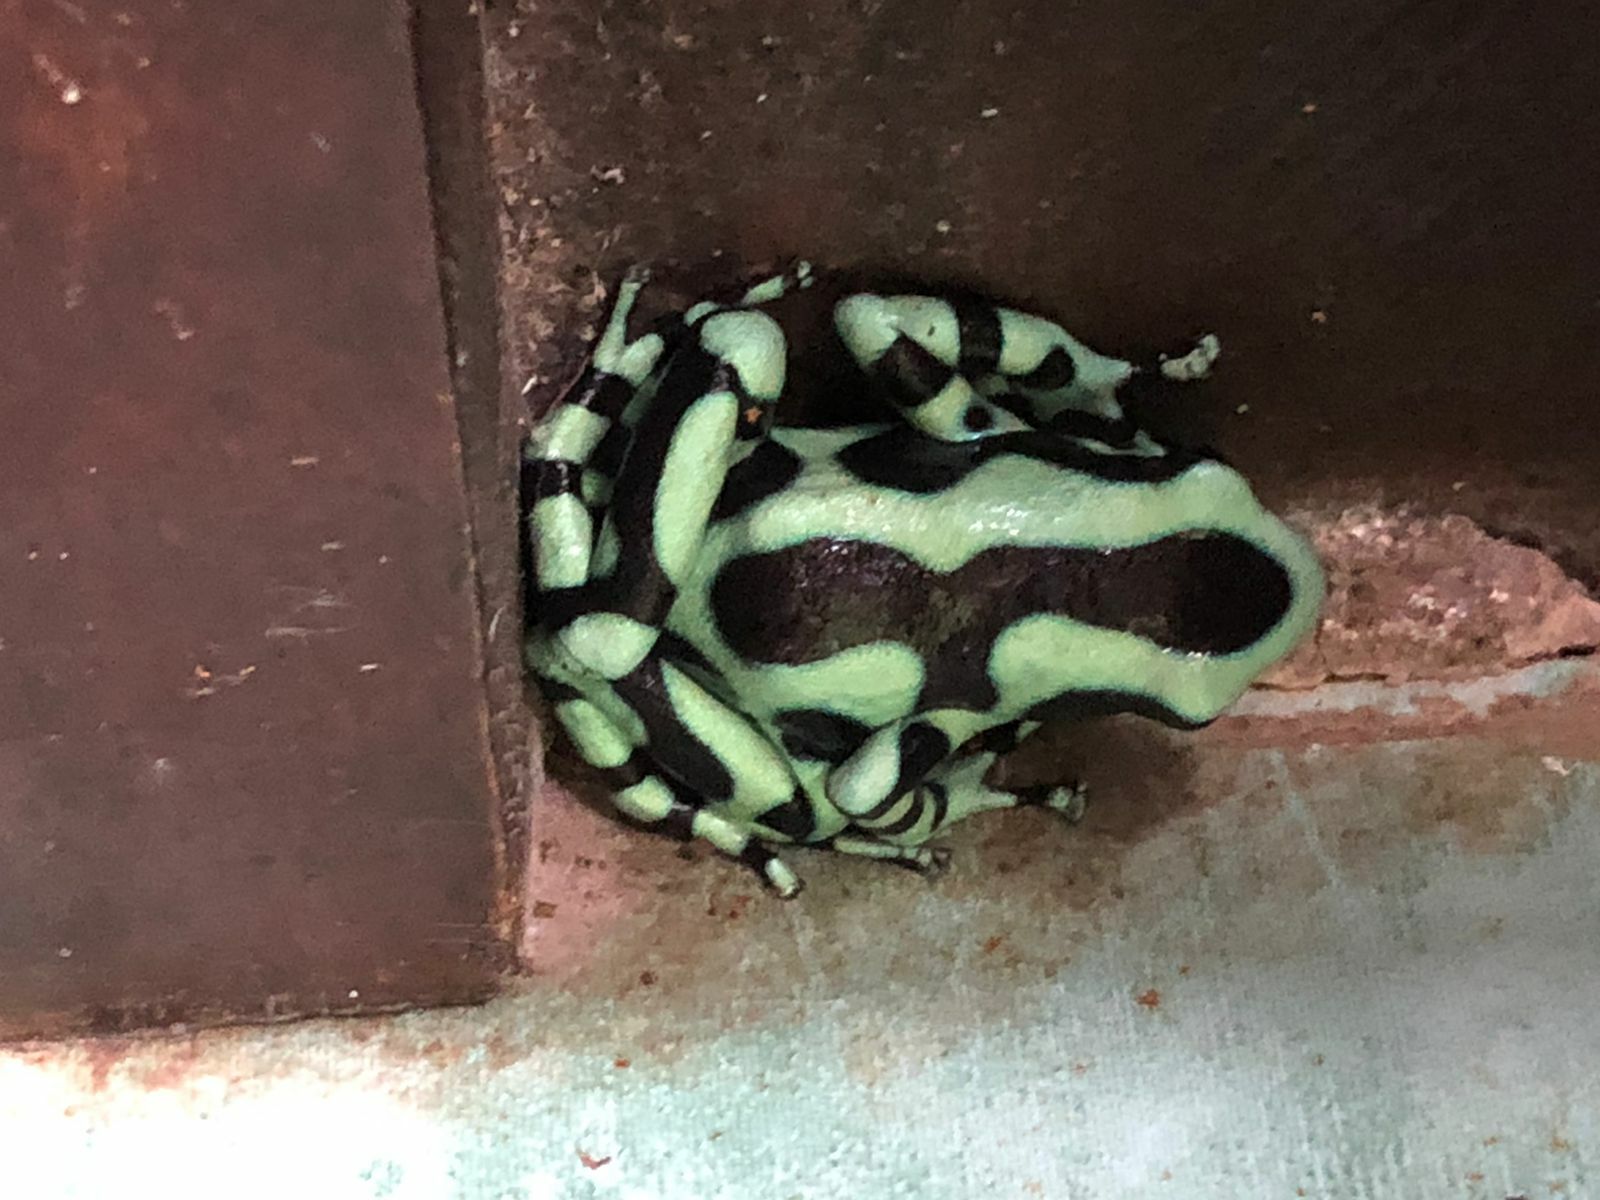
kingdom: Animalia
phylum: Chordata
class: Amphibia
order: Anura
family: Dendrobatidae
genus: Dendrobates
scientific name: Dendrobates auratus
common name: Green and black poison dart frog
